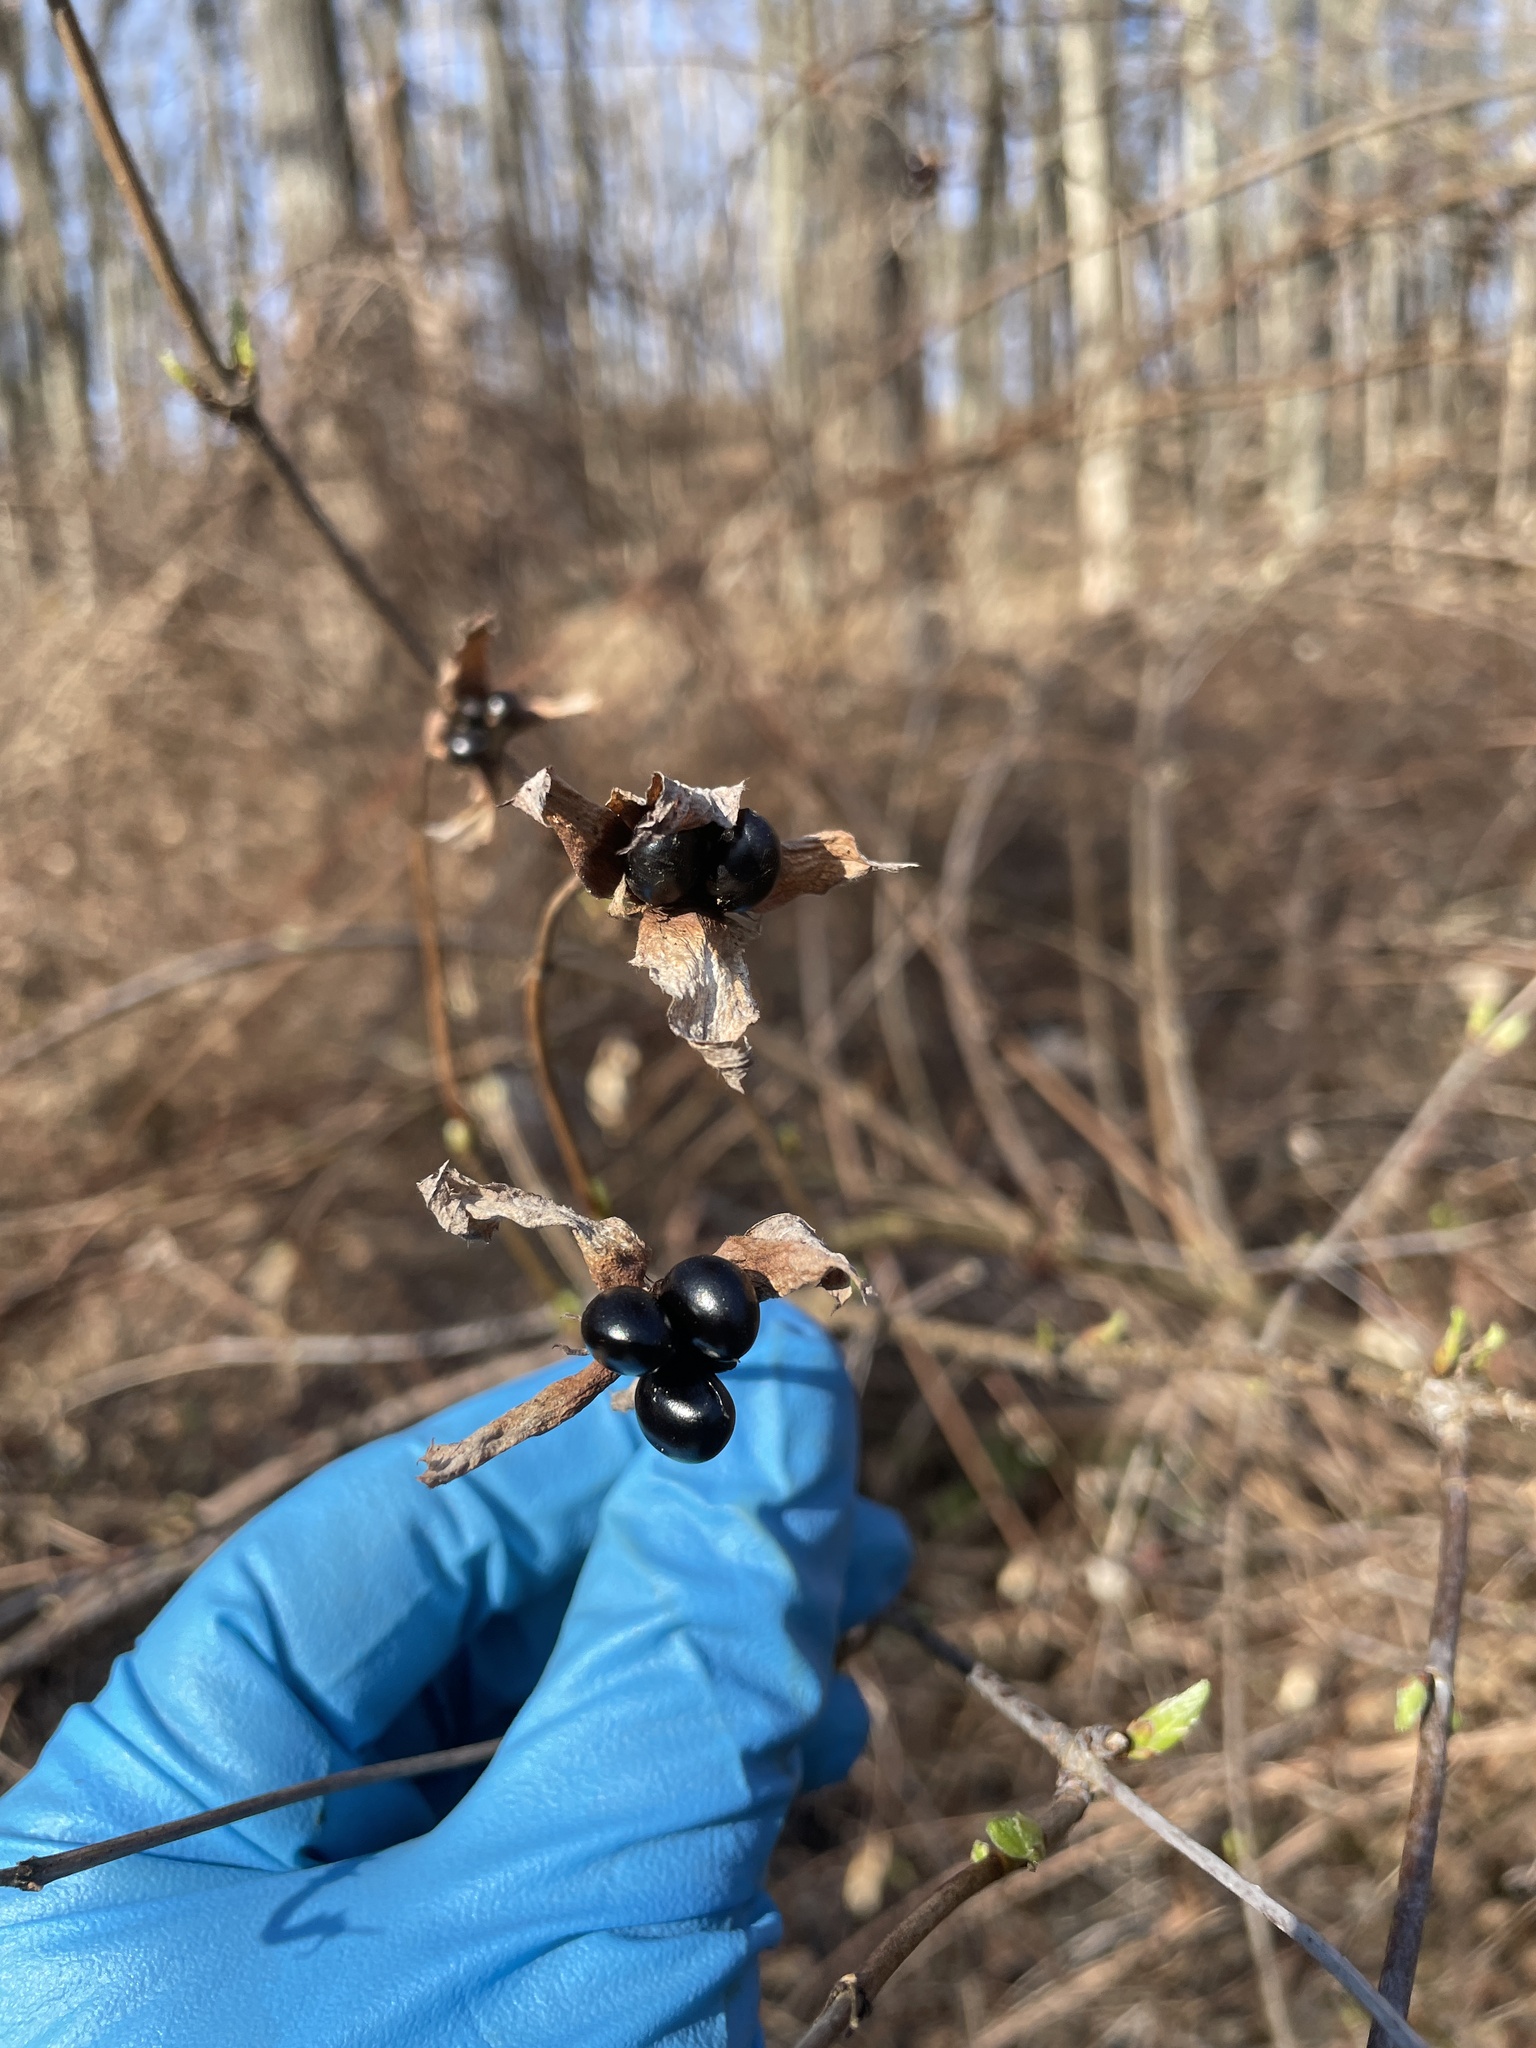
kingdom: Plantae
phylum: Tracheophyta
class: Magnoliopsida
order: Rosales
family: Rosaceae
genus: Rhodotypos
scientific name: Rhodotypos scandens
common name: Jetbead
